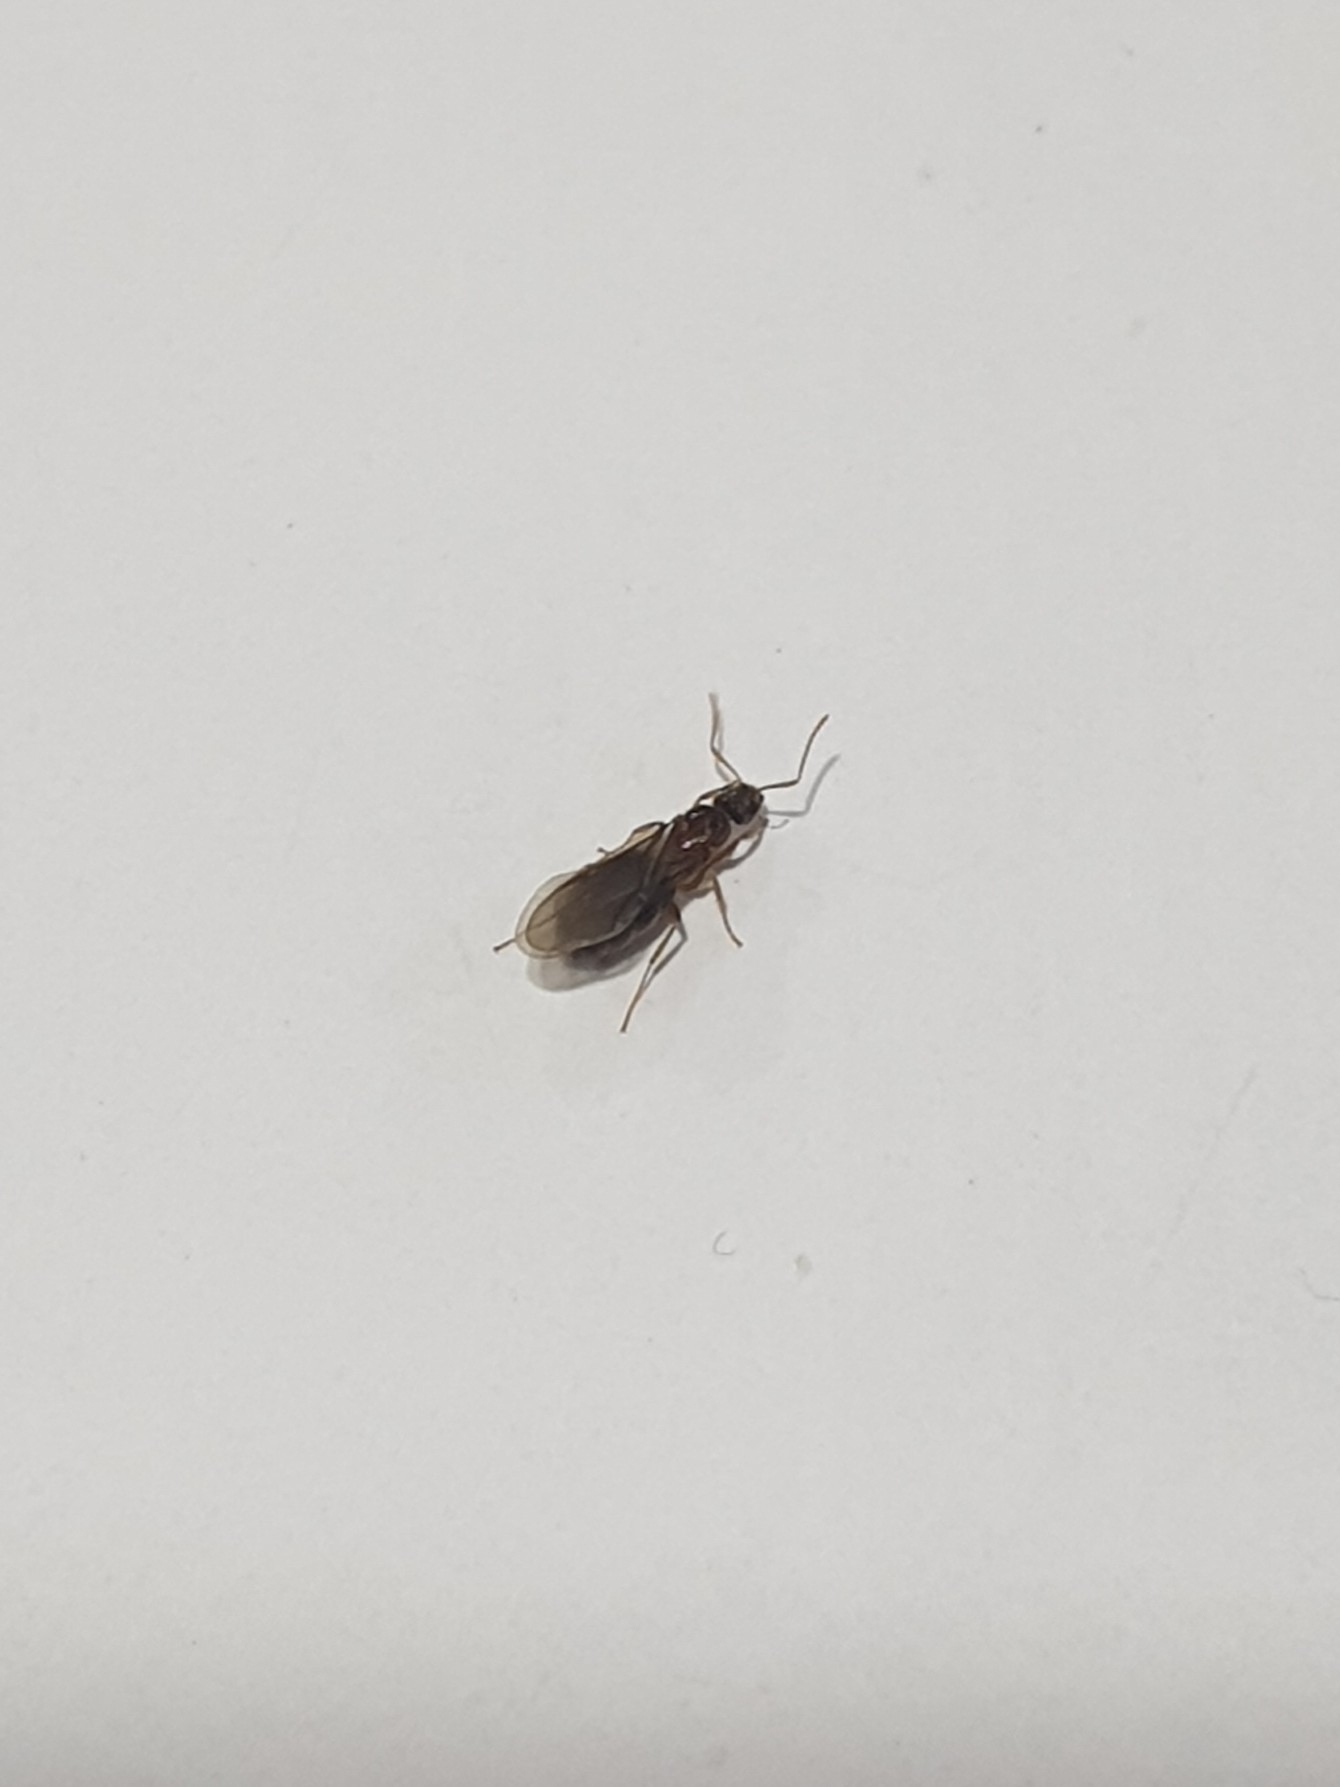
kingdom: Animalia
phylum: Arthropoda
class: Insecta
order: Hymenoptera
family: Formicidae
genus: Nylanderia
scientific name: Nylanderia
